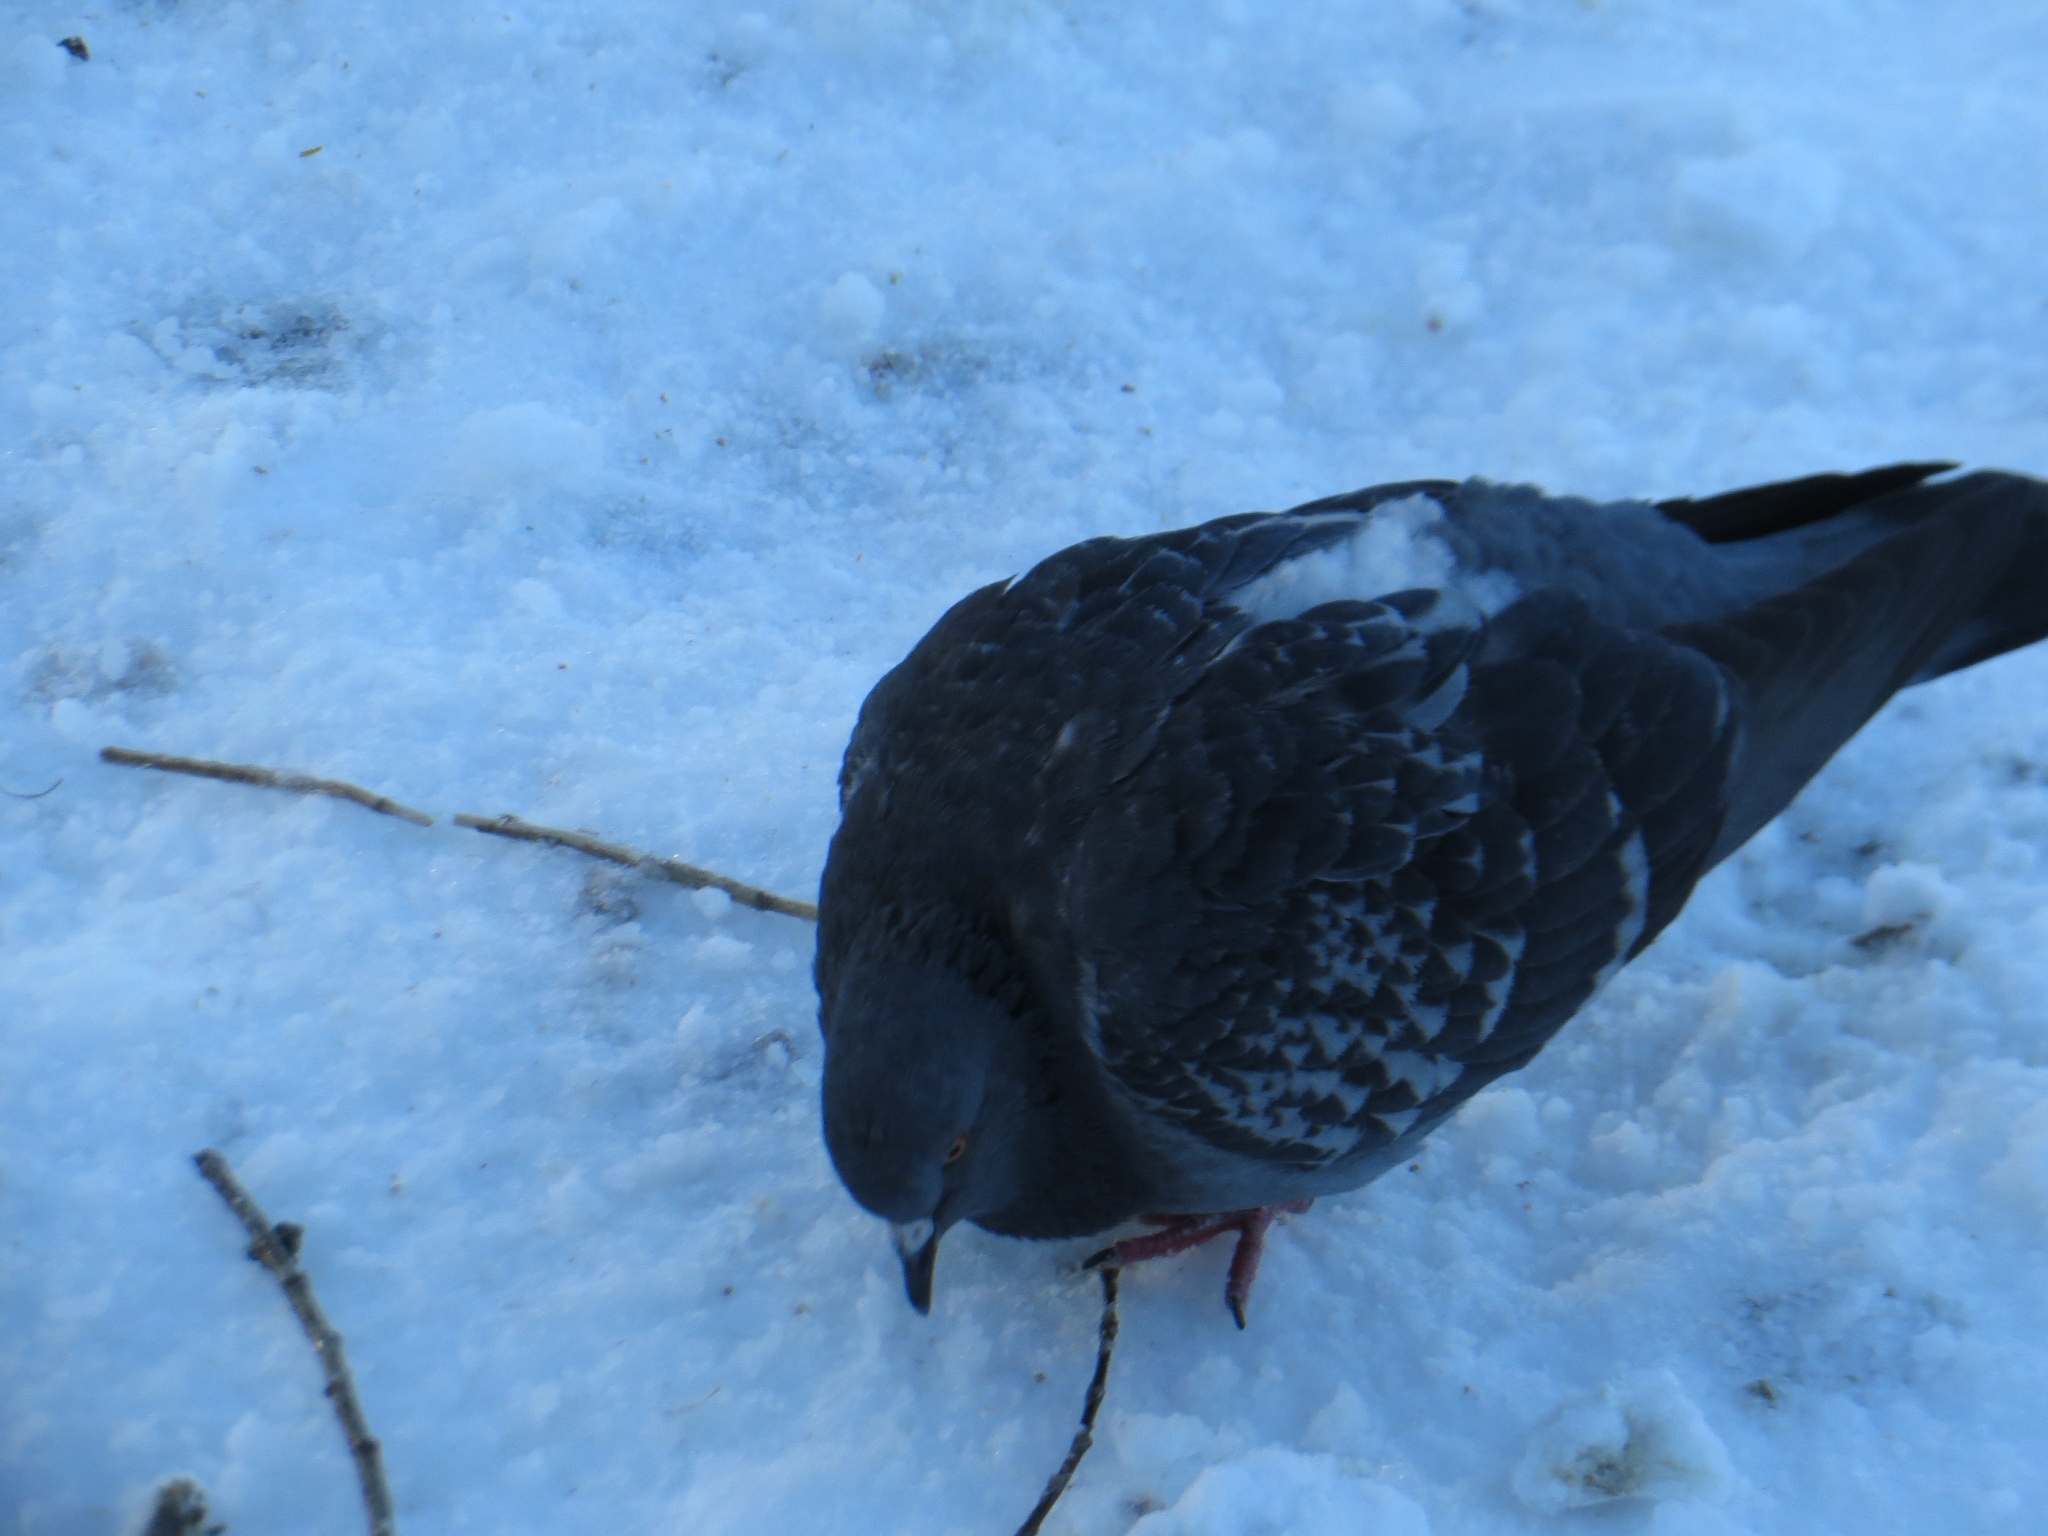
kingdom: Animalia
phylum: Chordata
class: Aves
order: Columbiformes
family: Columbidae
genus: Columba
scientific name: Columba livia
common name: Rock pigeon
